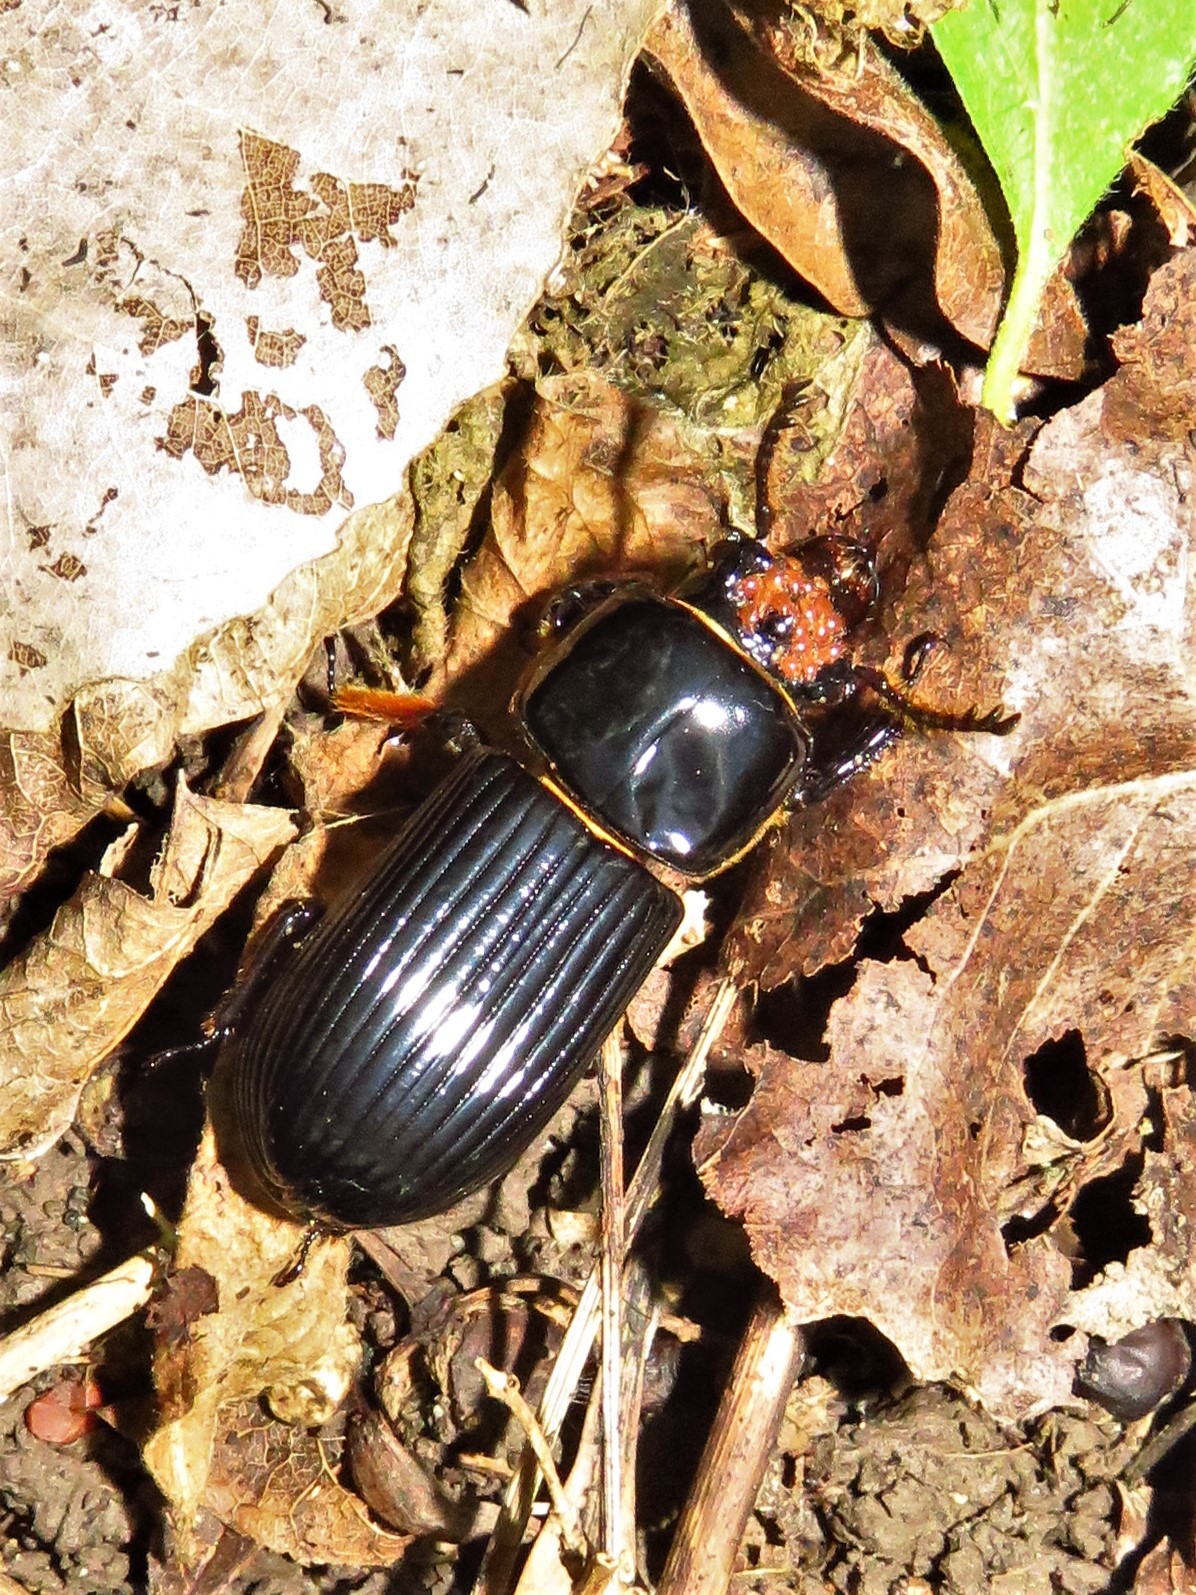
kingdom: Animalia
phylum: Arthropoda
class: Insecta
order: Coleoptera
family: Passalidae
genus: Odontotaenius
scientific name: Odontotaenius disjunctus
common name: Patent leather beetle
